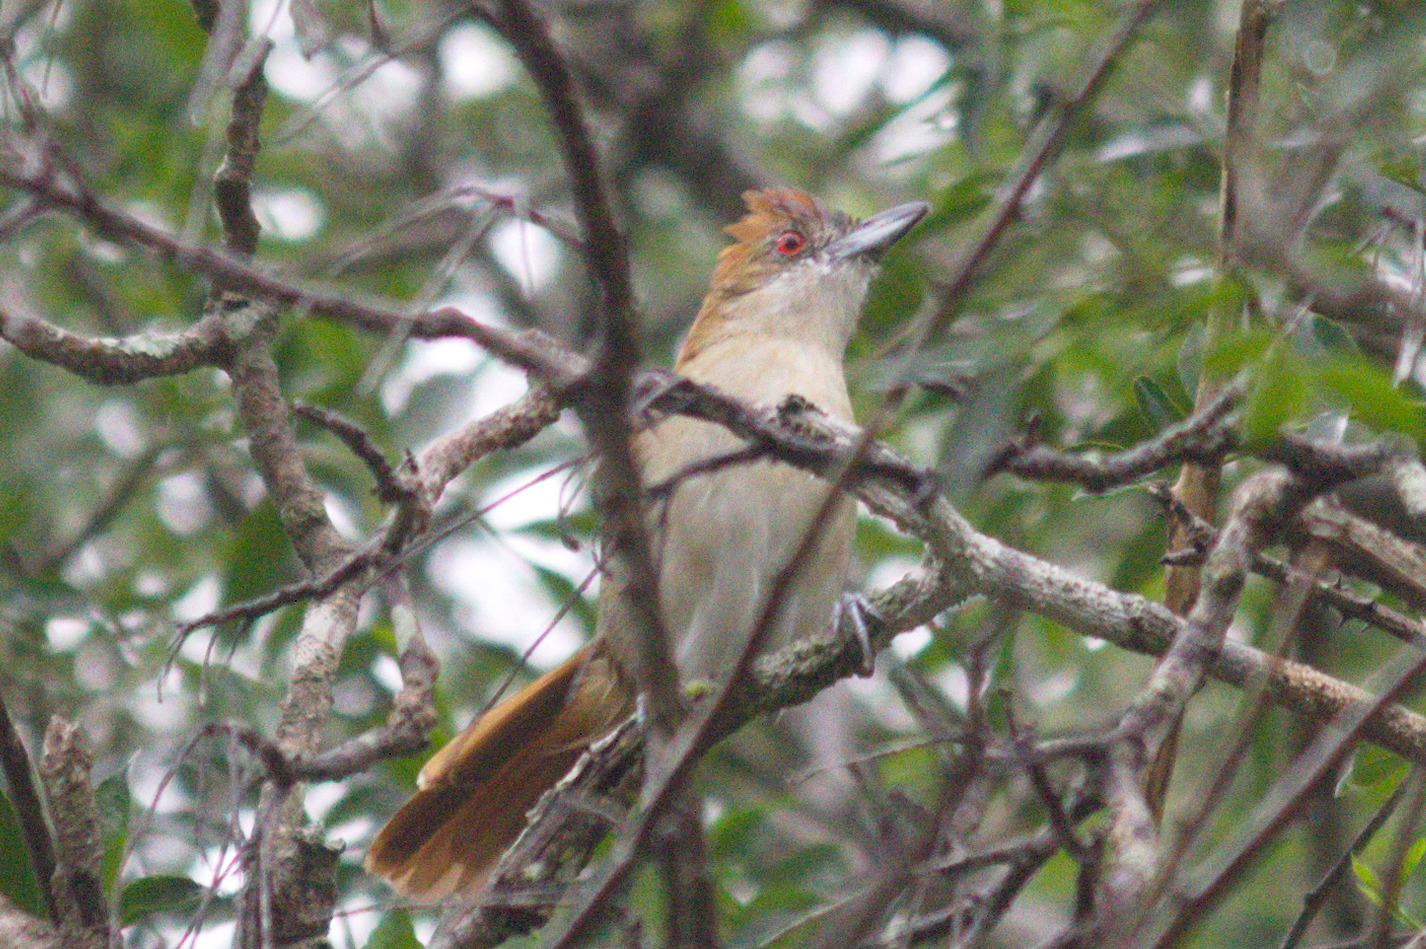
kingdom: Animalia
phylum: Chordata
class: Aves
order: Passeriformes
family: Thamnophilidae
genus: Taraba
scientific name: Taraba major
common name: Great antshrike
